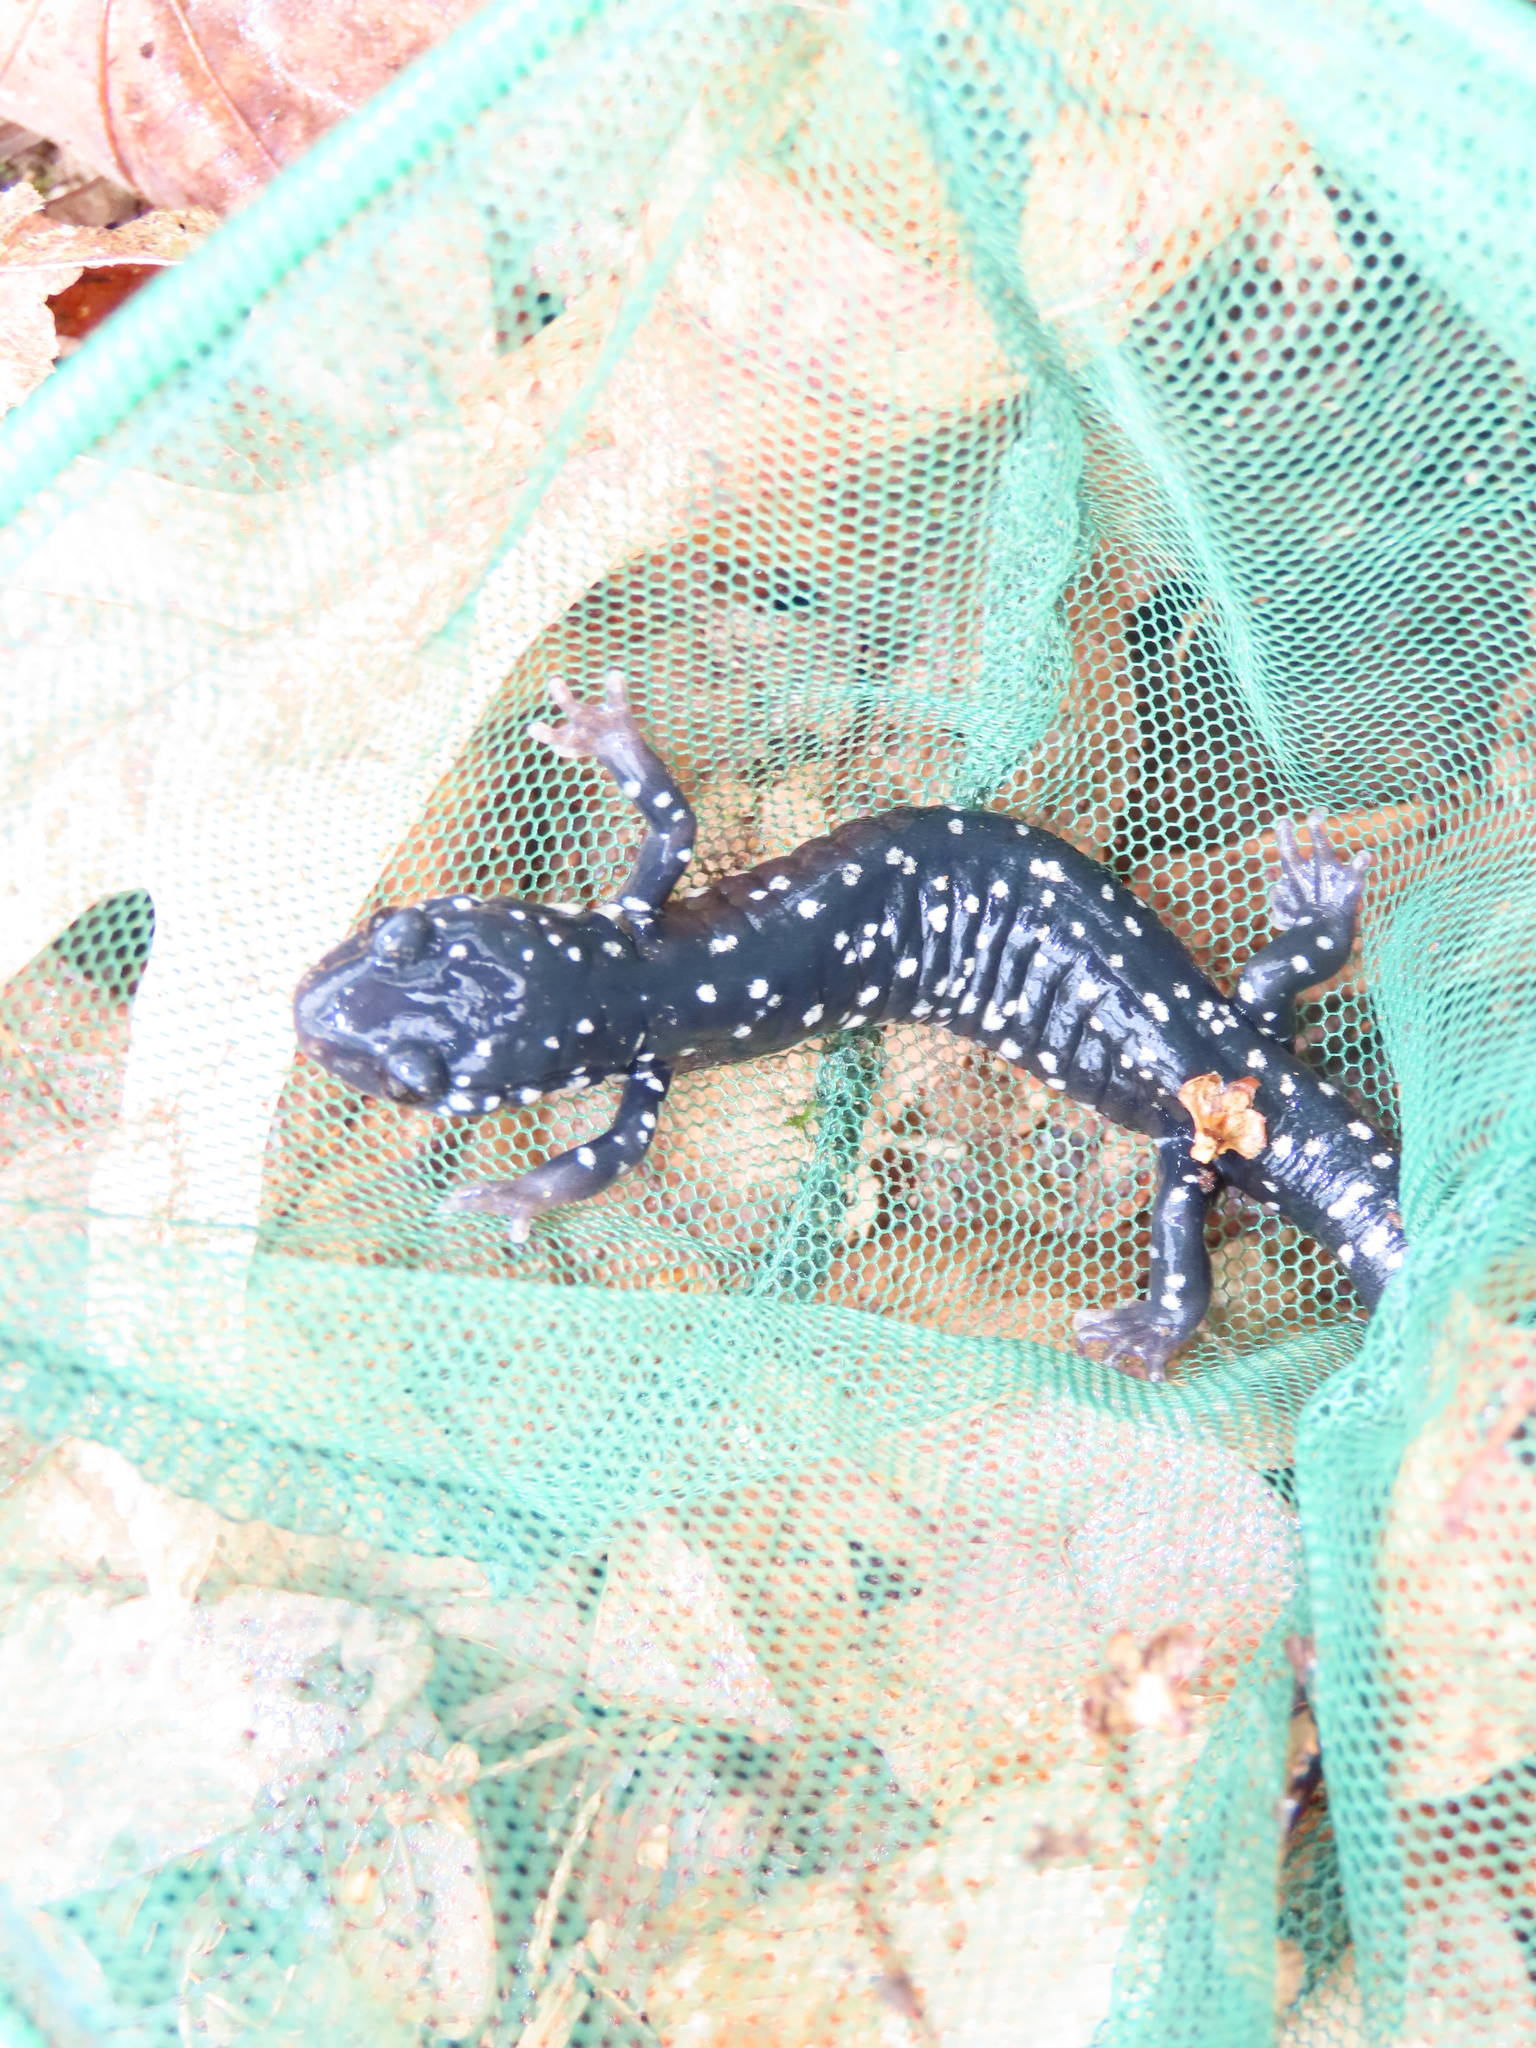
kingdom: Animalia
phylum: Chordata
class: Amphibia
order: Caudata
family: Plethodontidae
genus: Plethodon
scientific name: Plethodon glutinosus
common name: Northern slimy salamander
